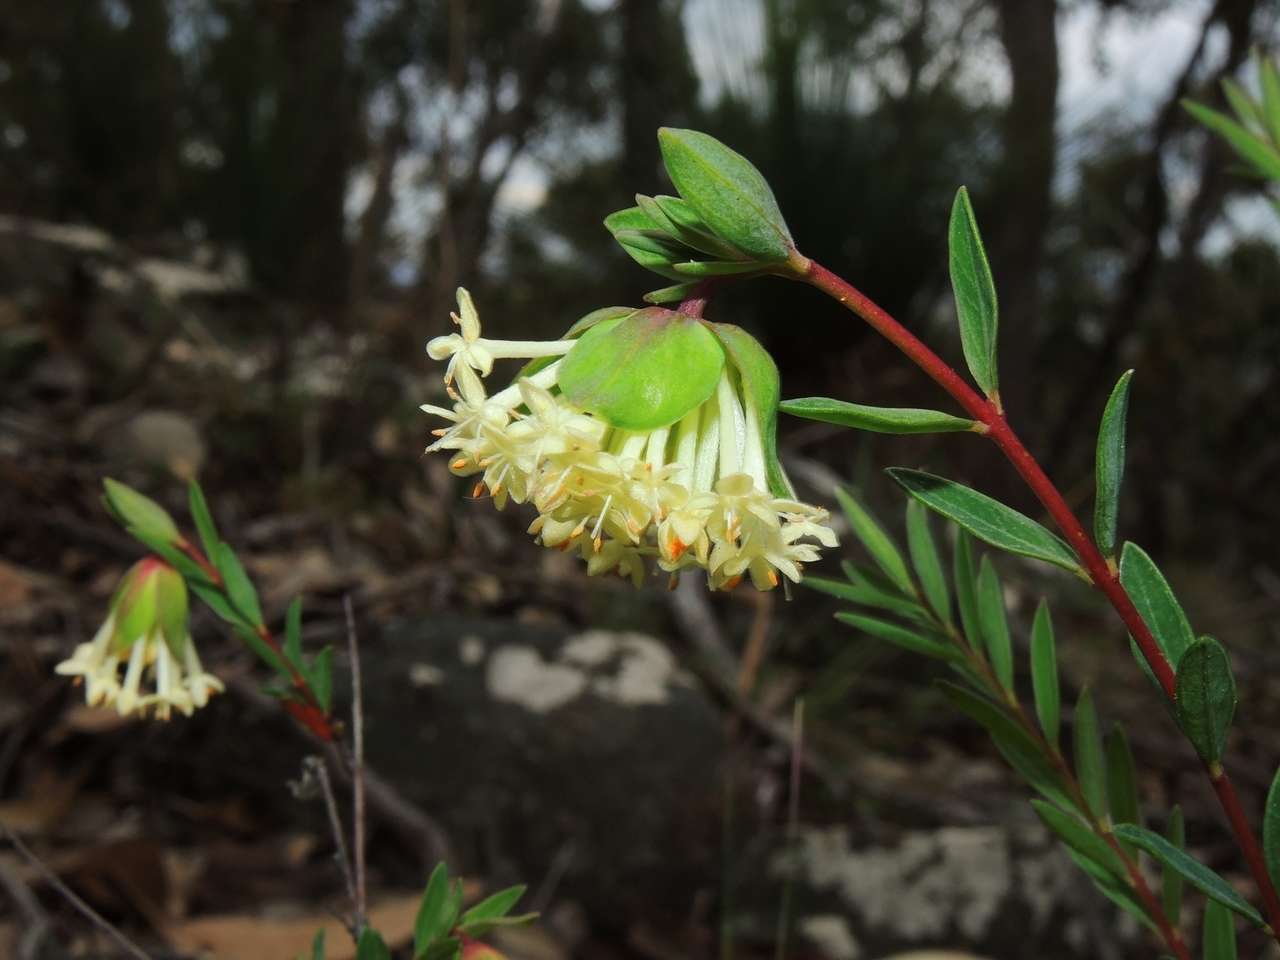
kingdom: Plantae
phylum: Tracheophyta
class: Magnoliopsida
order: Malvales
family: Thymelaeaceae
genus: Pimelea
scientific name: Pimelea linifolia
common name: Queen-of-the-bush
